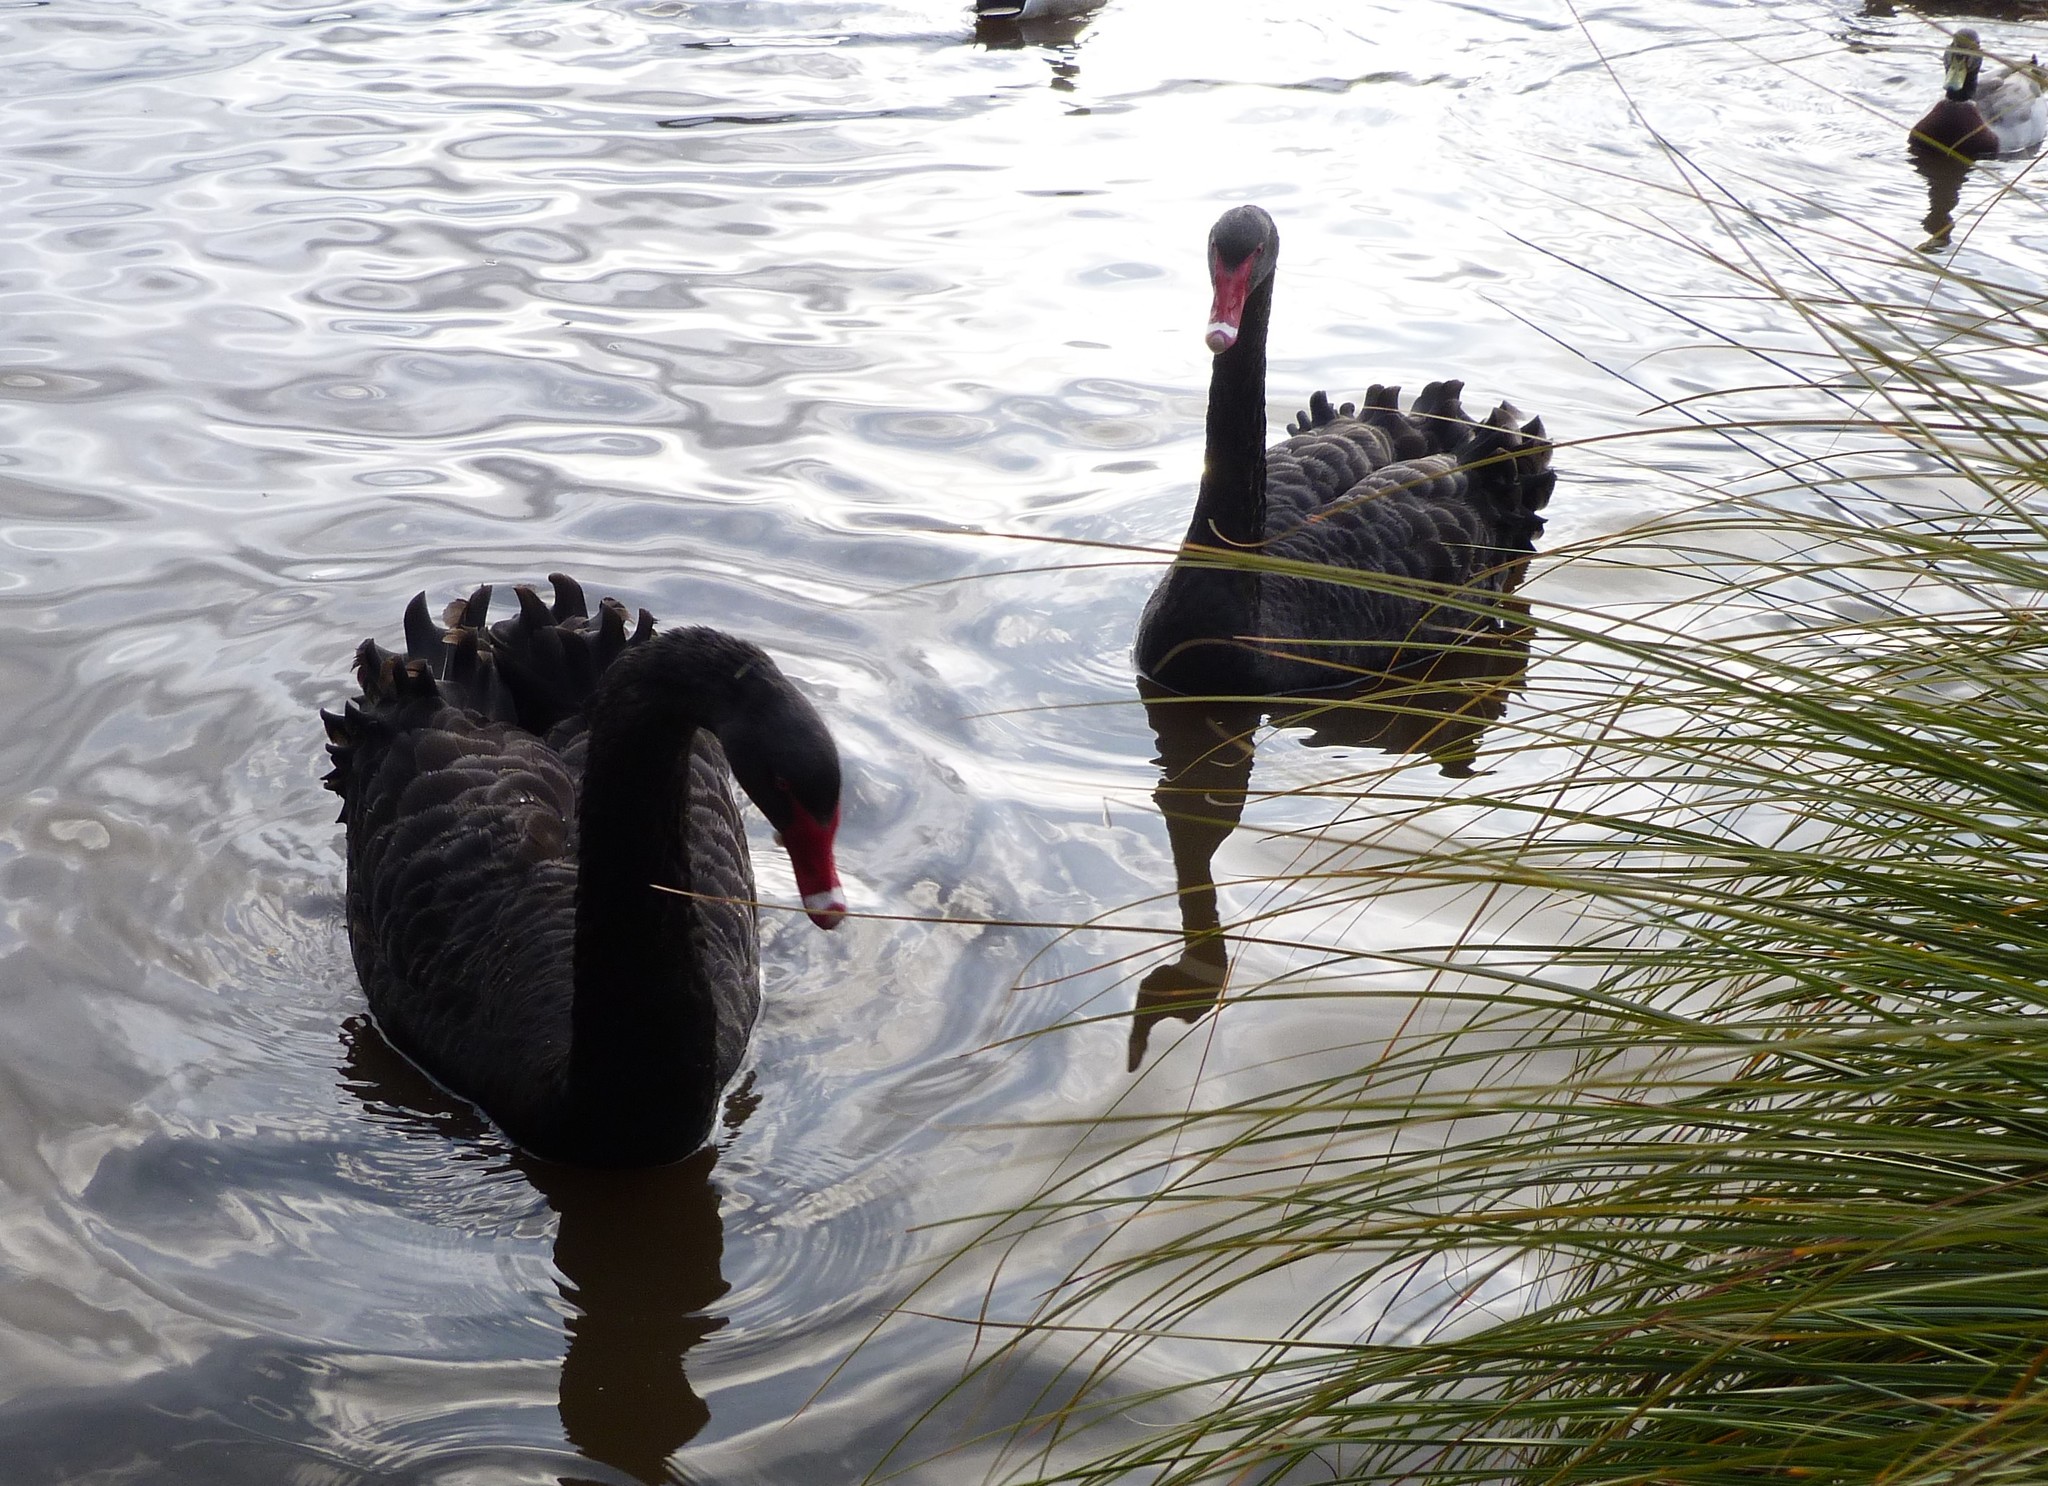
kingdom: Animalia
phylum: Chordata
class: Aves
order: Anseriformes
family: Anatidae
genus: Cygnus
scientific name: Cygnus atratus
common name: Black swan
